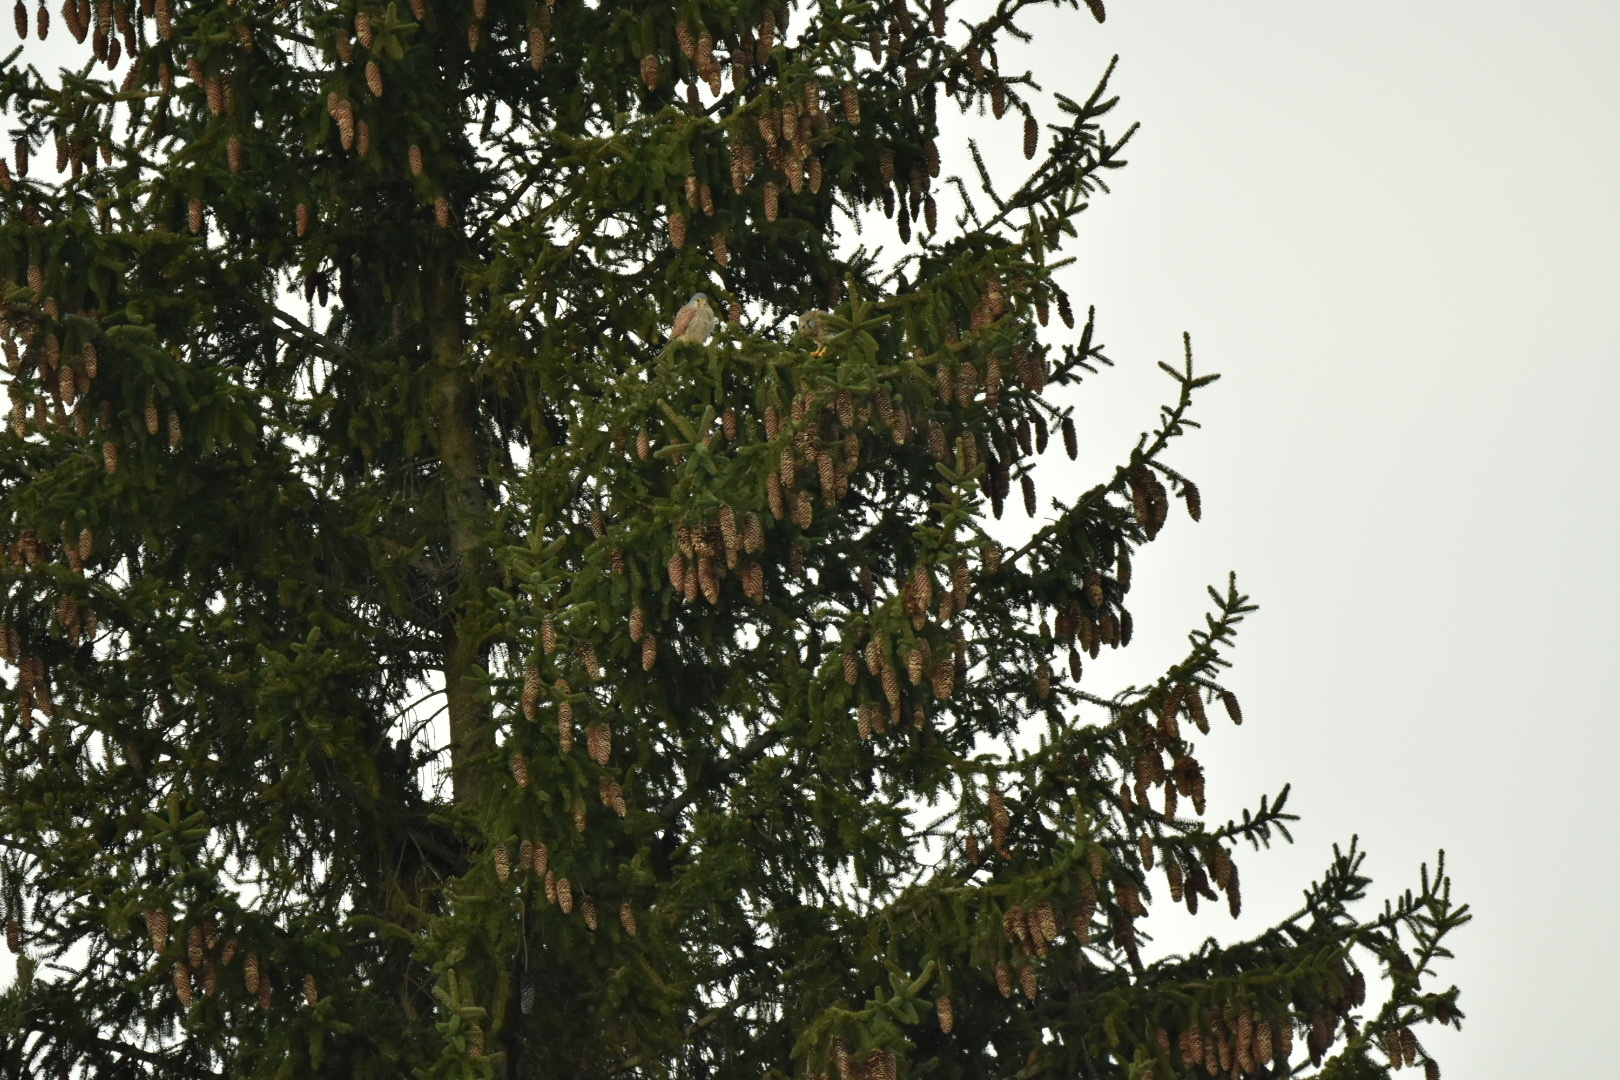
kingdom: Animalia
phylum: Chordata
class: Aves
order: Falconiformes
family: Falconidae
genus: Falco
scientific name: Falco tinnunculus
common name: Common kestrel
